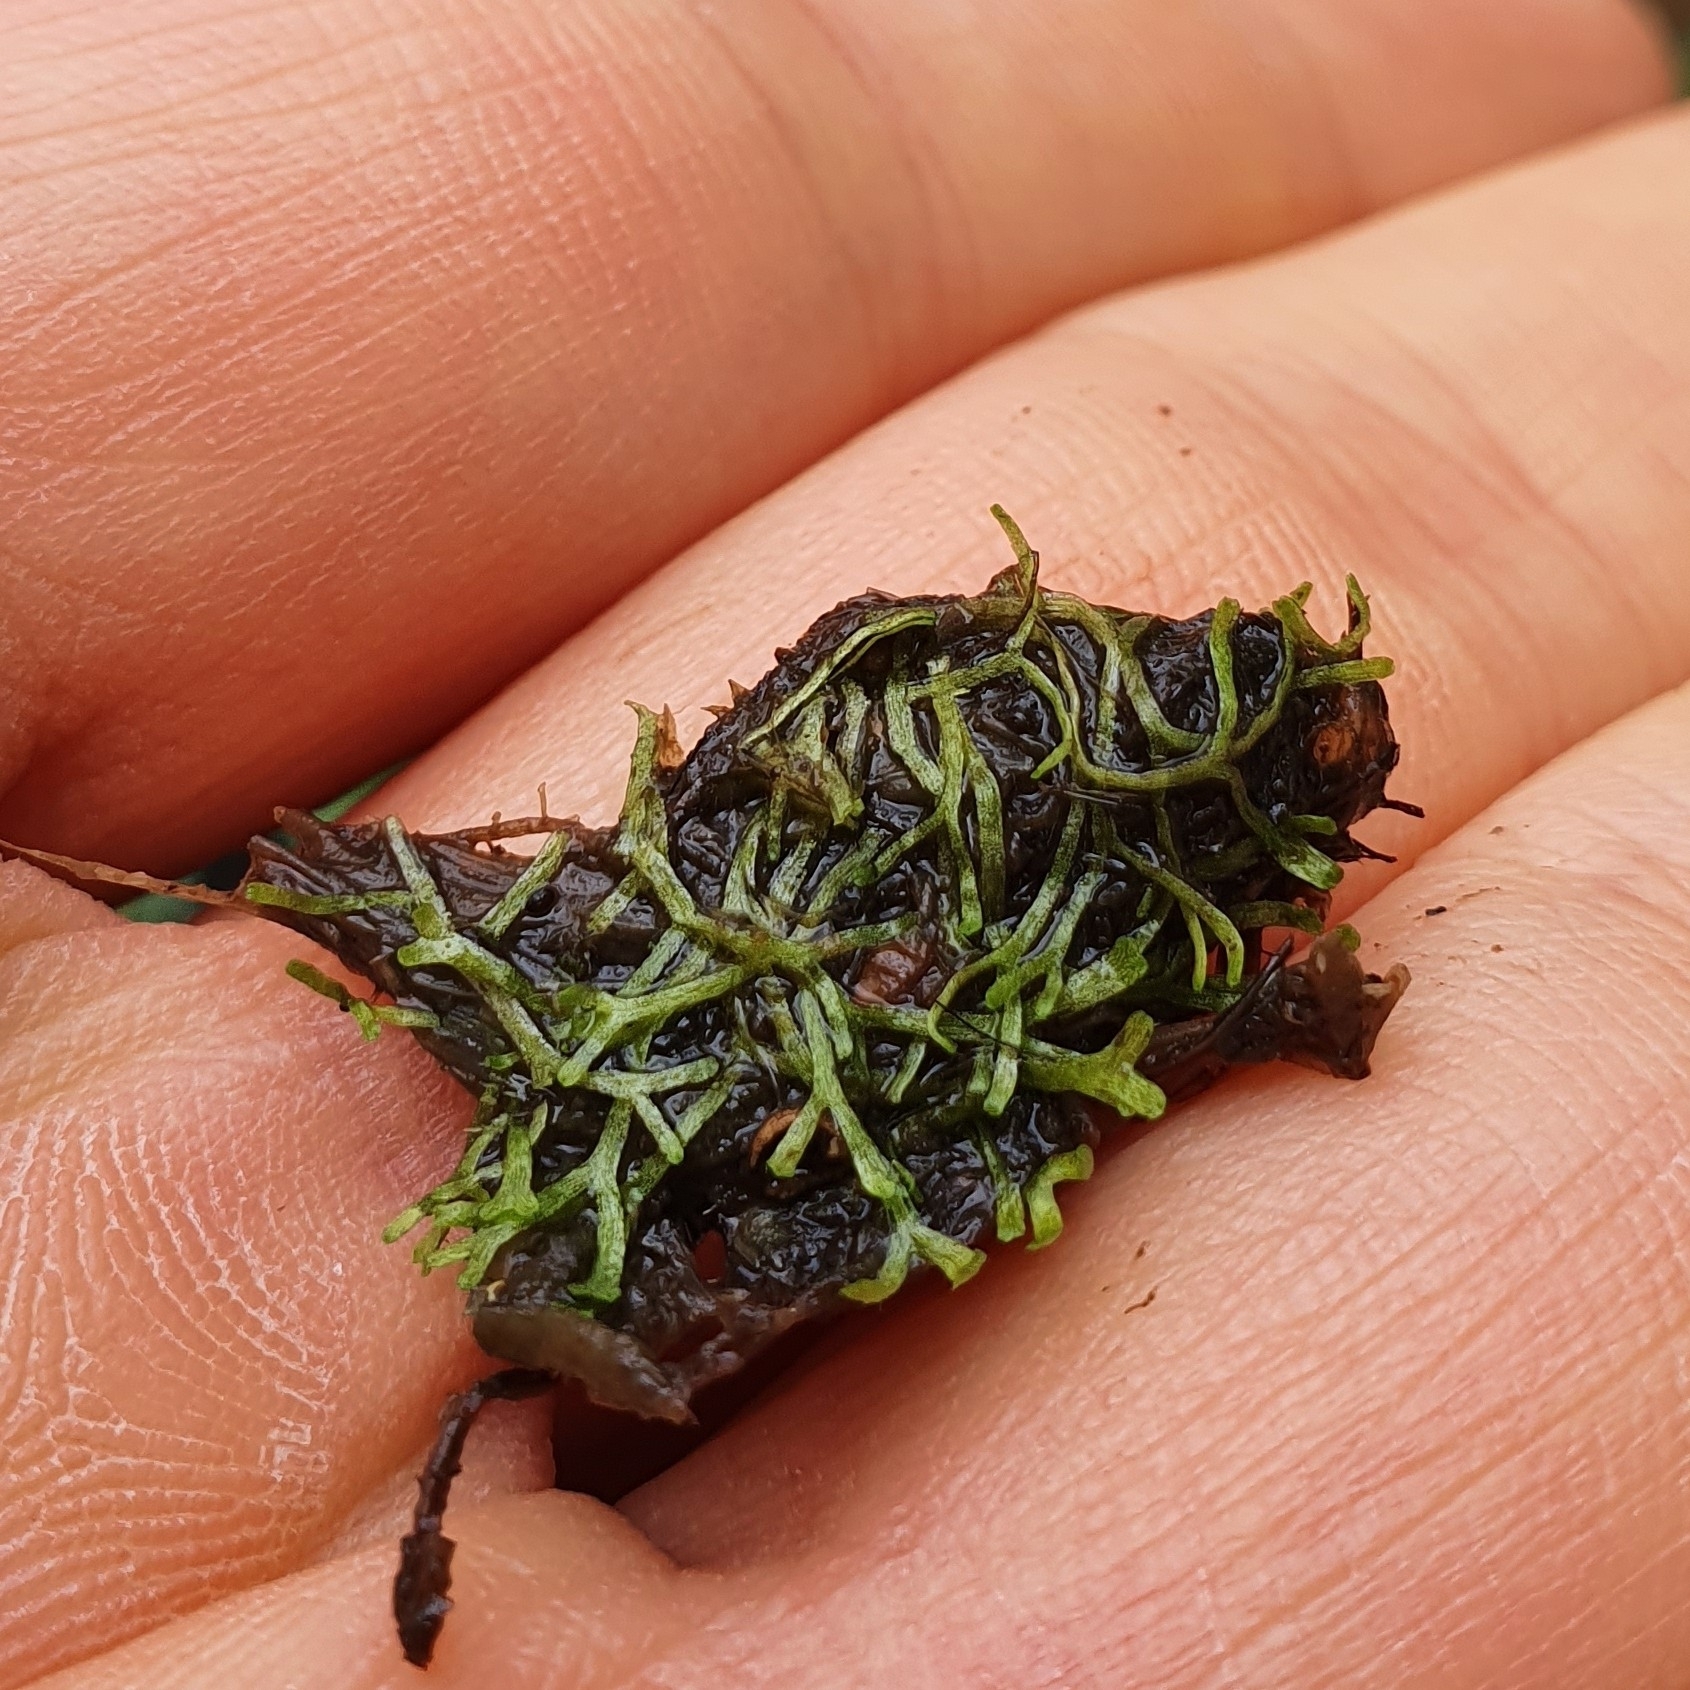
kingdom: Plantae
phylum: Marchantiophyta
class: Marchantiopsida
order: Marchantiales
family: Ricciaceae
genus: Riccia
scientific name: Riccia fluitans
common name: Floating crystalwort
